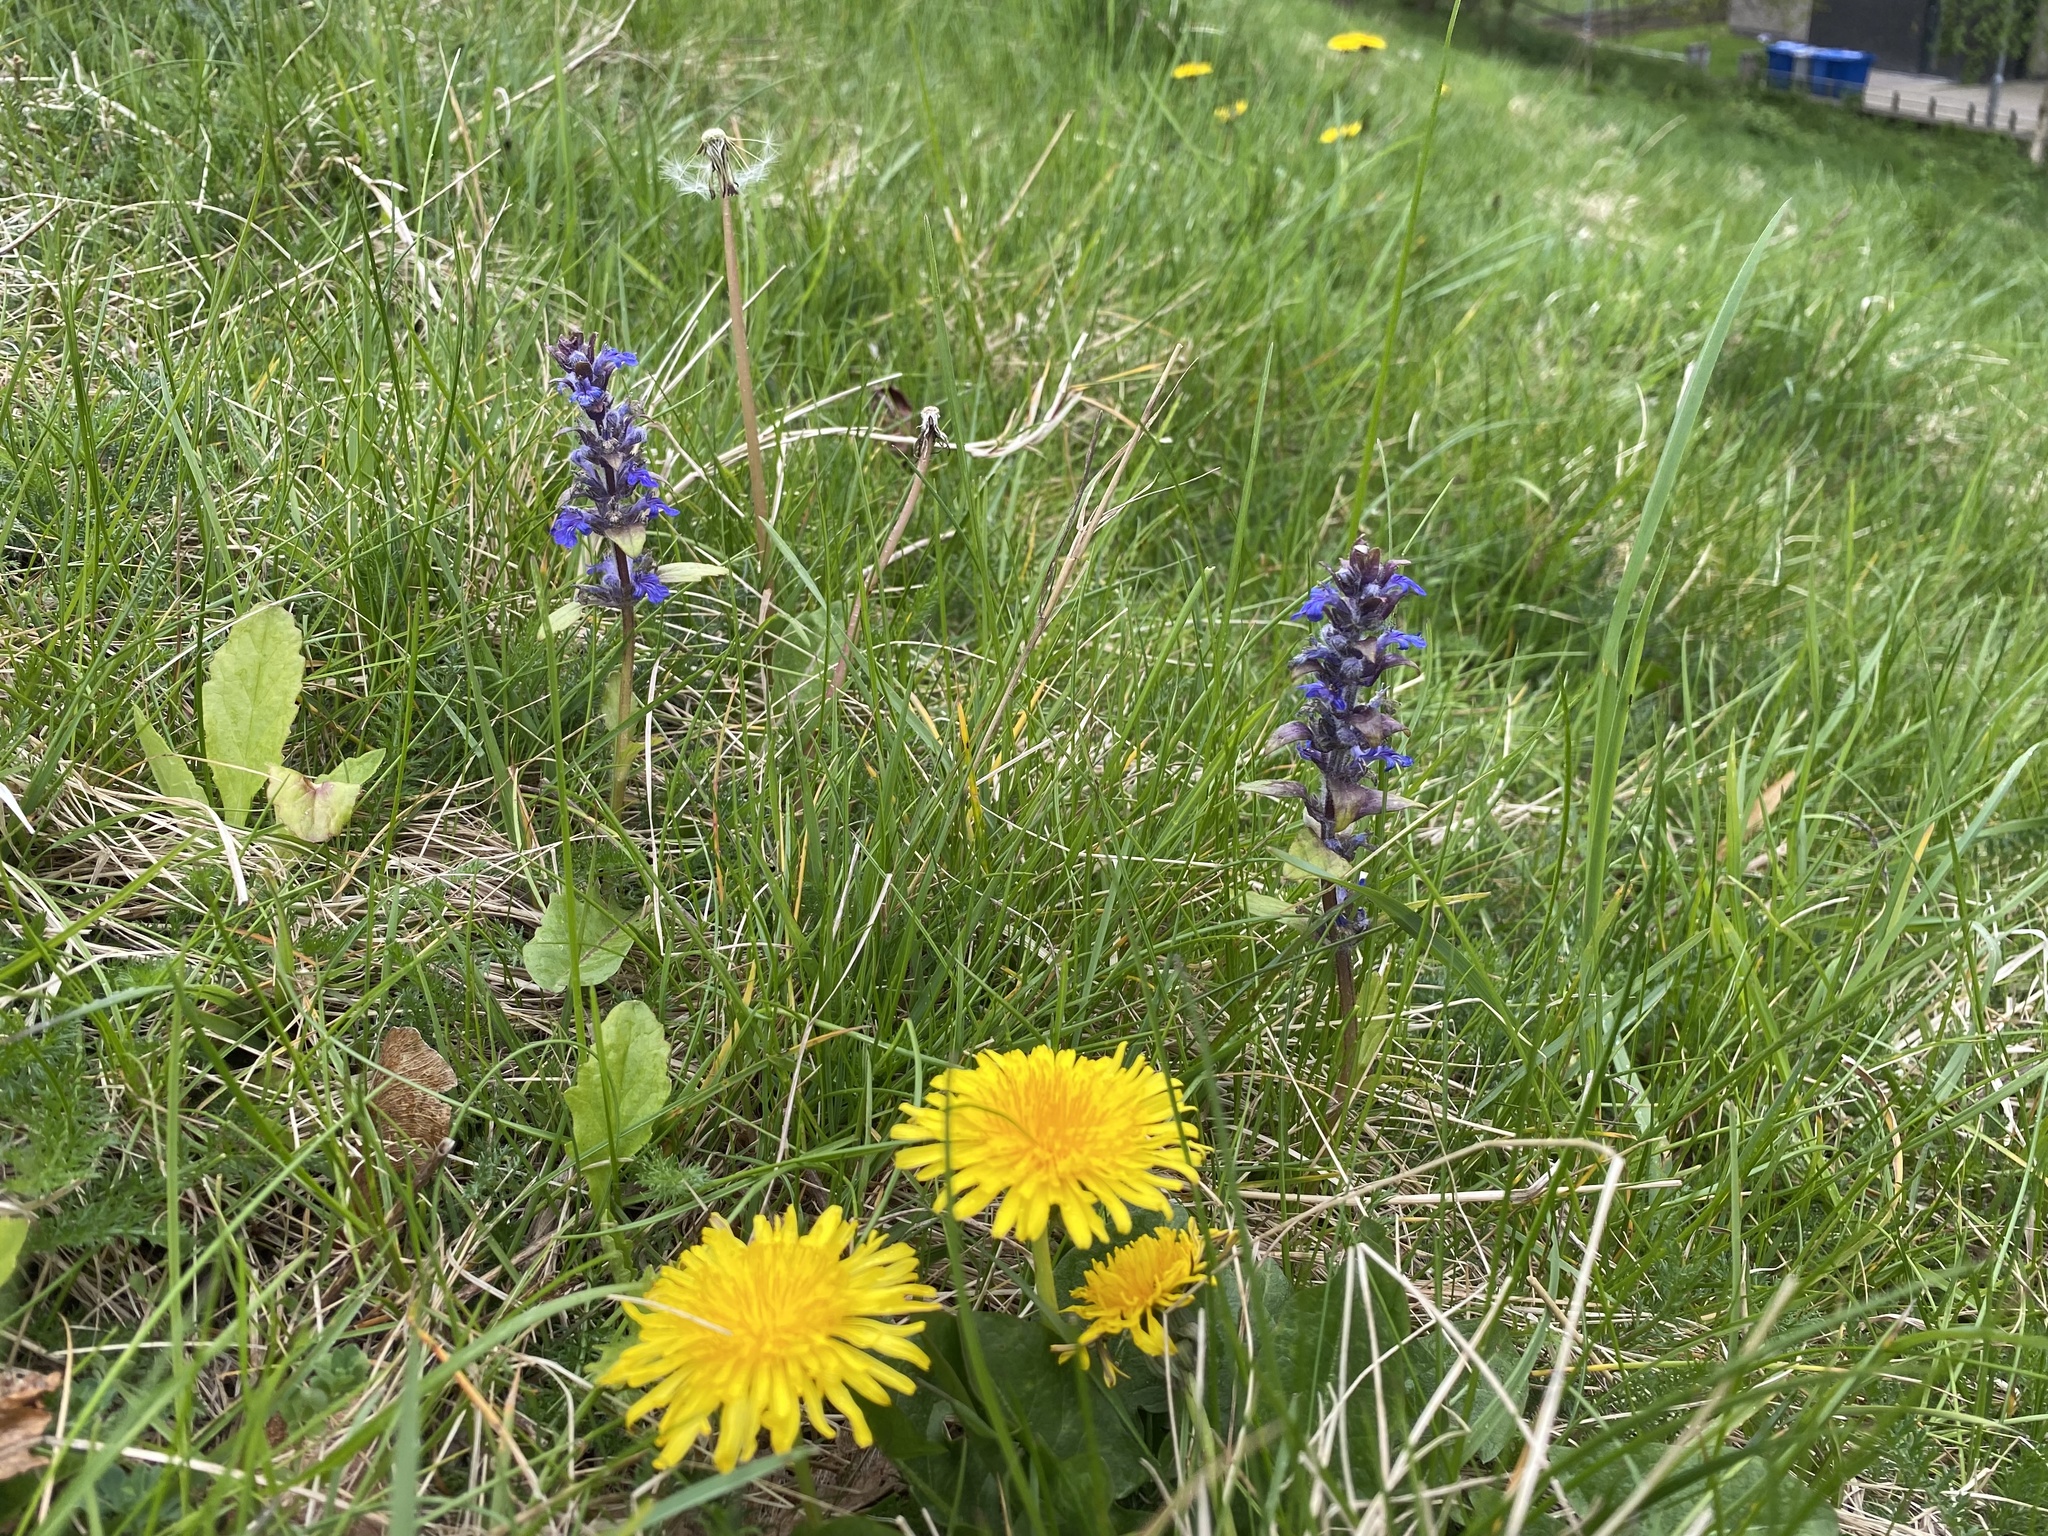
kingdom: Plantae
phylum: Tracheophyta
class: Magnoliopsida
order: Lamiales
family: Lamiaceae
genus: Ajuga
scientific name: Ajuga reptans
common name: Bugle
